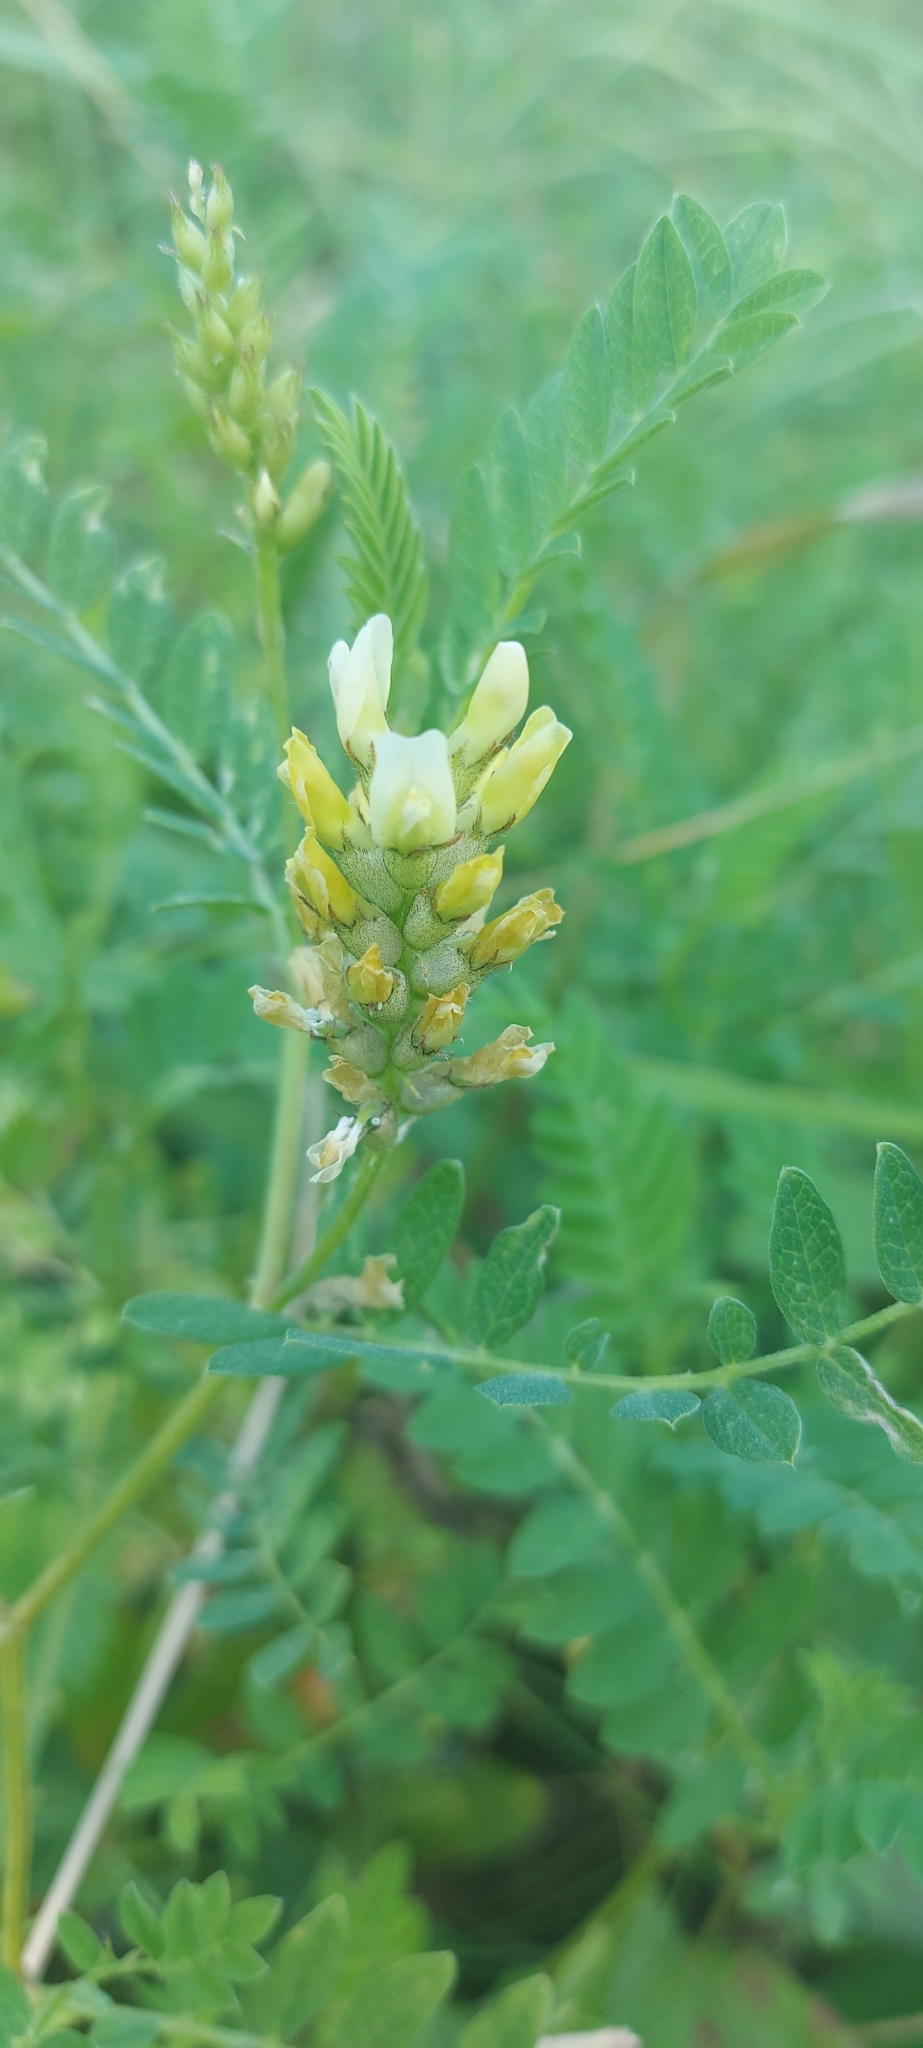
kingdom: Plantae
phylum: Tracheophyta
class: Magnoliopsida
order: Fabales
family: Fabaceae
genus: Astragalus
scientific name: Astragalus cicer
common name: Chick-pea milk-vetch
